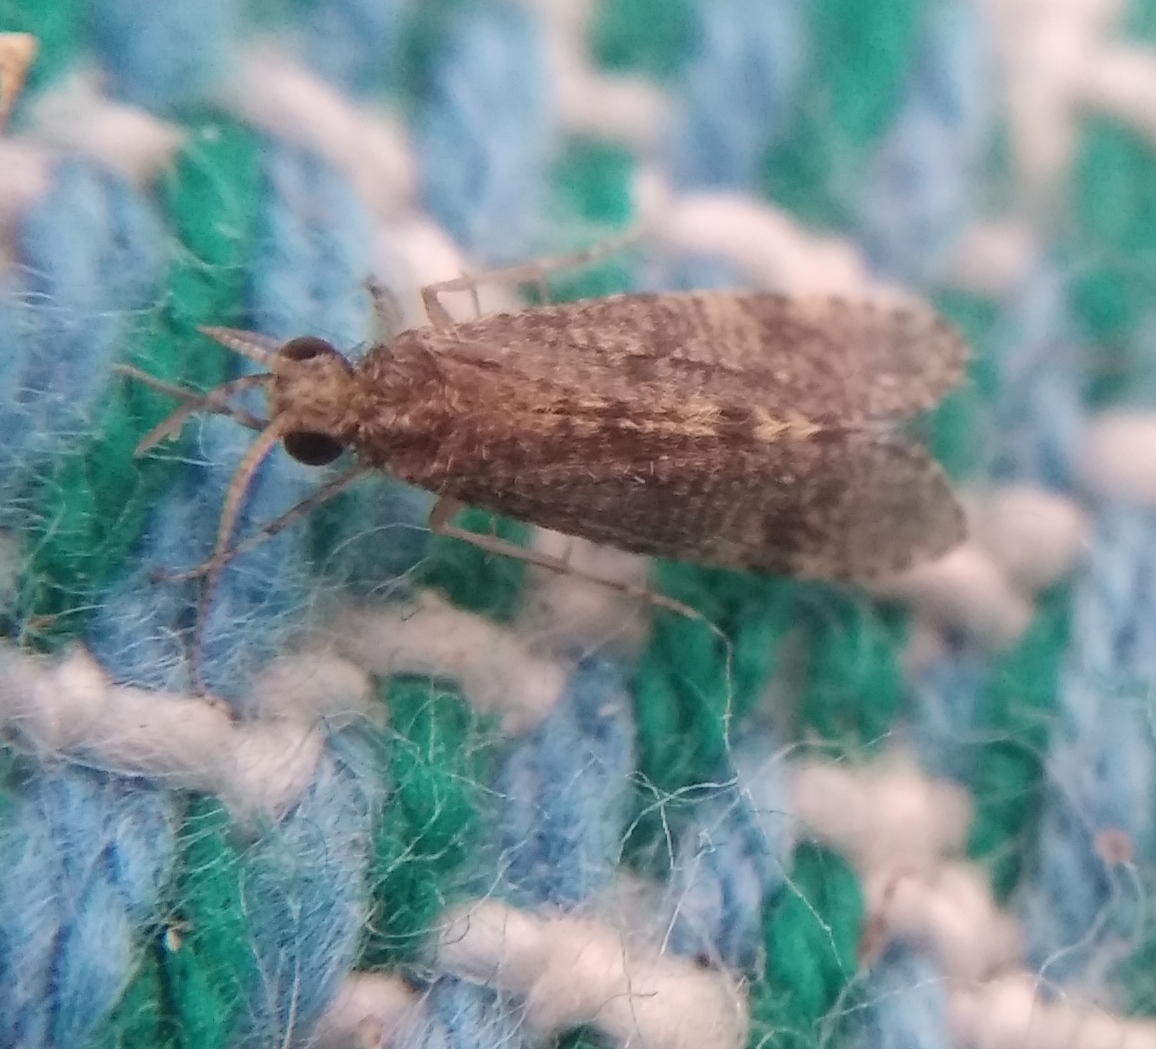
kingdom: Animalia
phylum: Arthropoda
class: Insecta
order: Trichoptera
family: Ecnomidae
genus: Ecnomus
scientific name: Ecnomus tenellus
